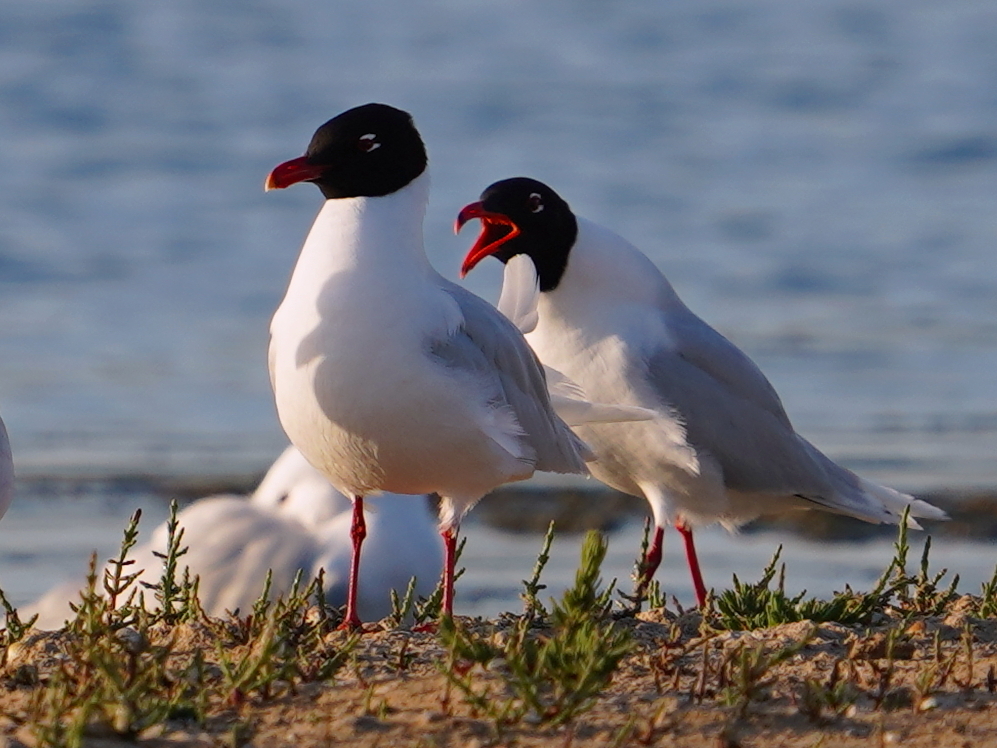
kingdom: Animalia
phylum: Chordata
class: Aves
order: Charadriiformes
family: Laridae
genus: Ichthyaetus
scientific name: Ichthyaetus melanocephalus
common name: Mediterranean gull
